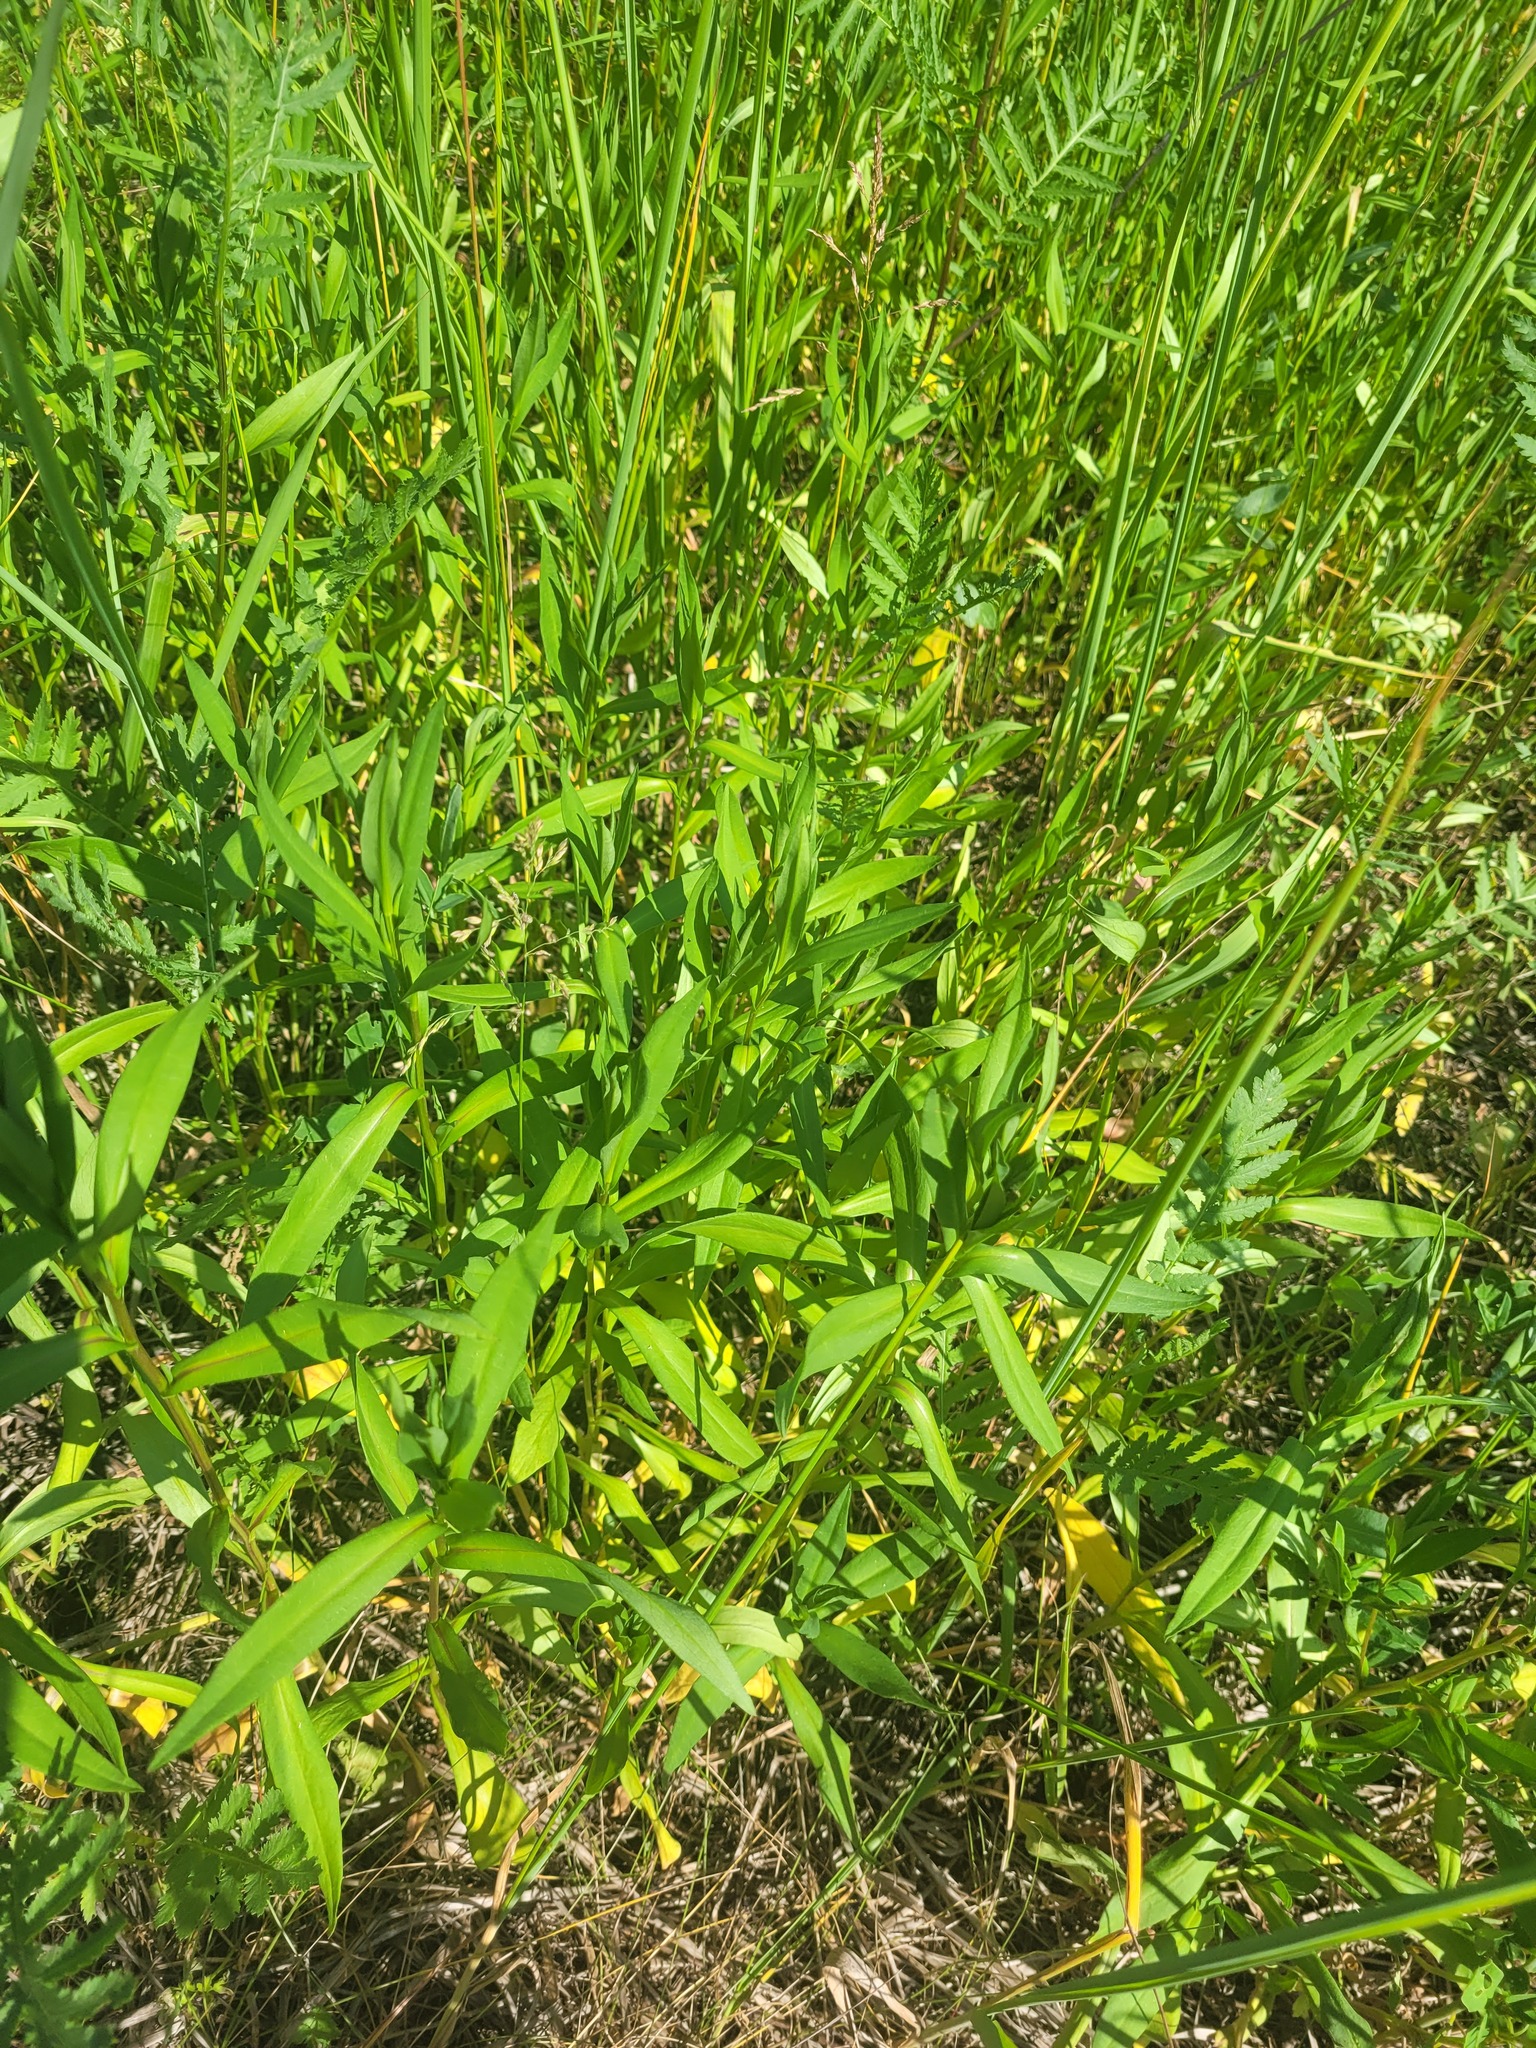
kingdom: Plantae
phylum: Tracheophyta
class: Magnoliopsida
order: Asterales
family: Asteraceae
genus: Symphyotrichum
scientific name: Symphyotrichum novi-belgii
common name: Michaelmas daisy
